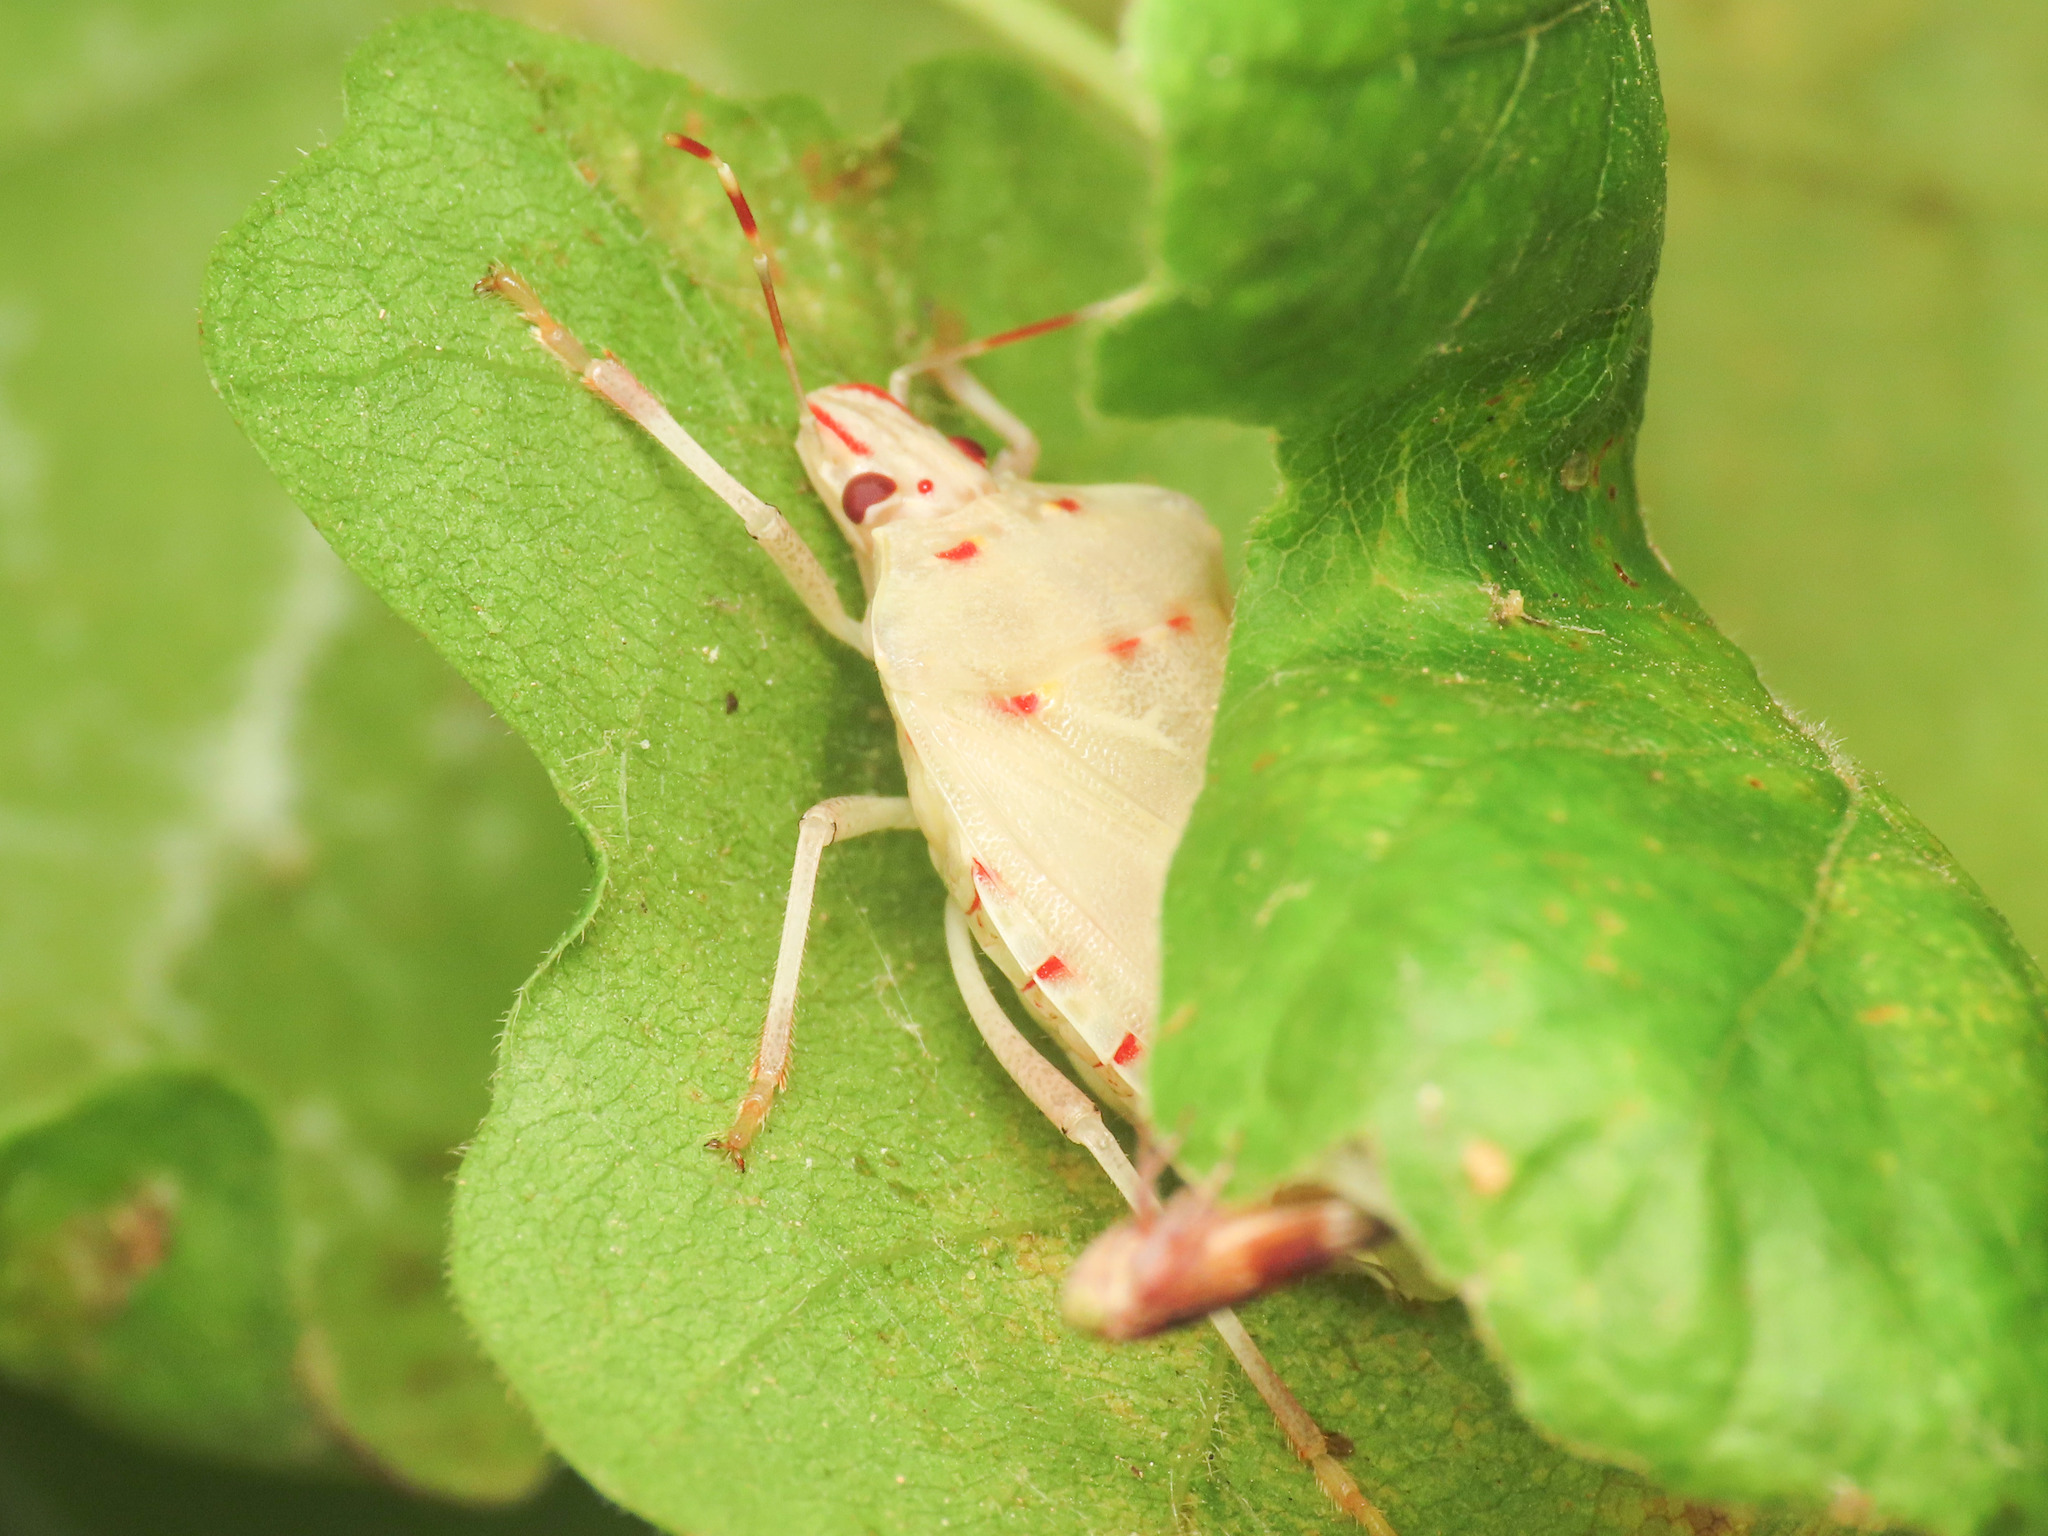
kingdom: Animalia
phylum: Arthropoda
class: Insecta
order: Hemiptera
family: Pentatomidae
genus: Halyomorpha
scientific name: Halyomorpha halys
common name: Brown marmorated stink bug
